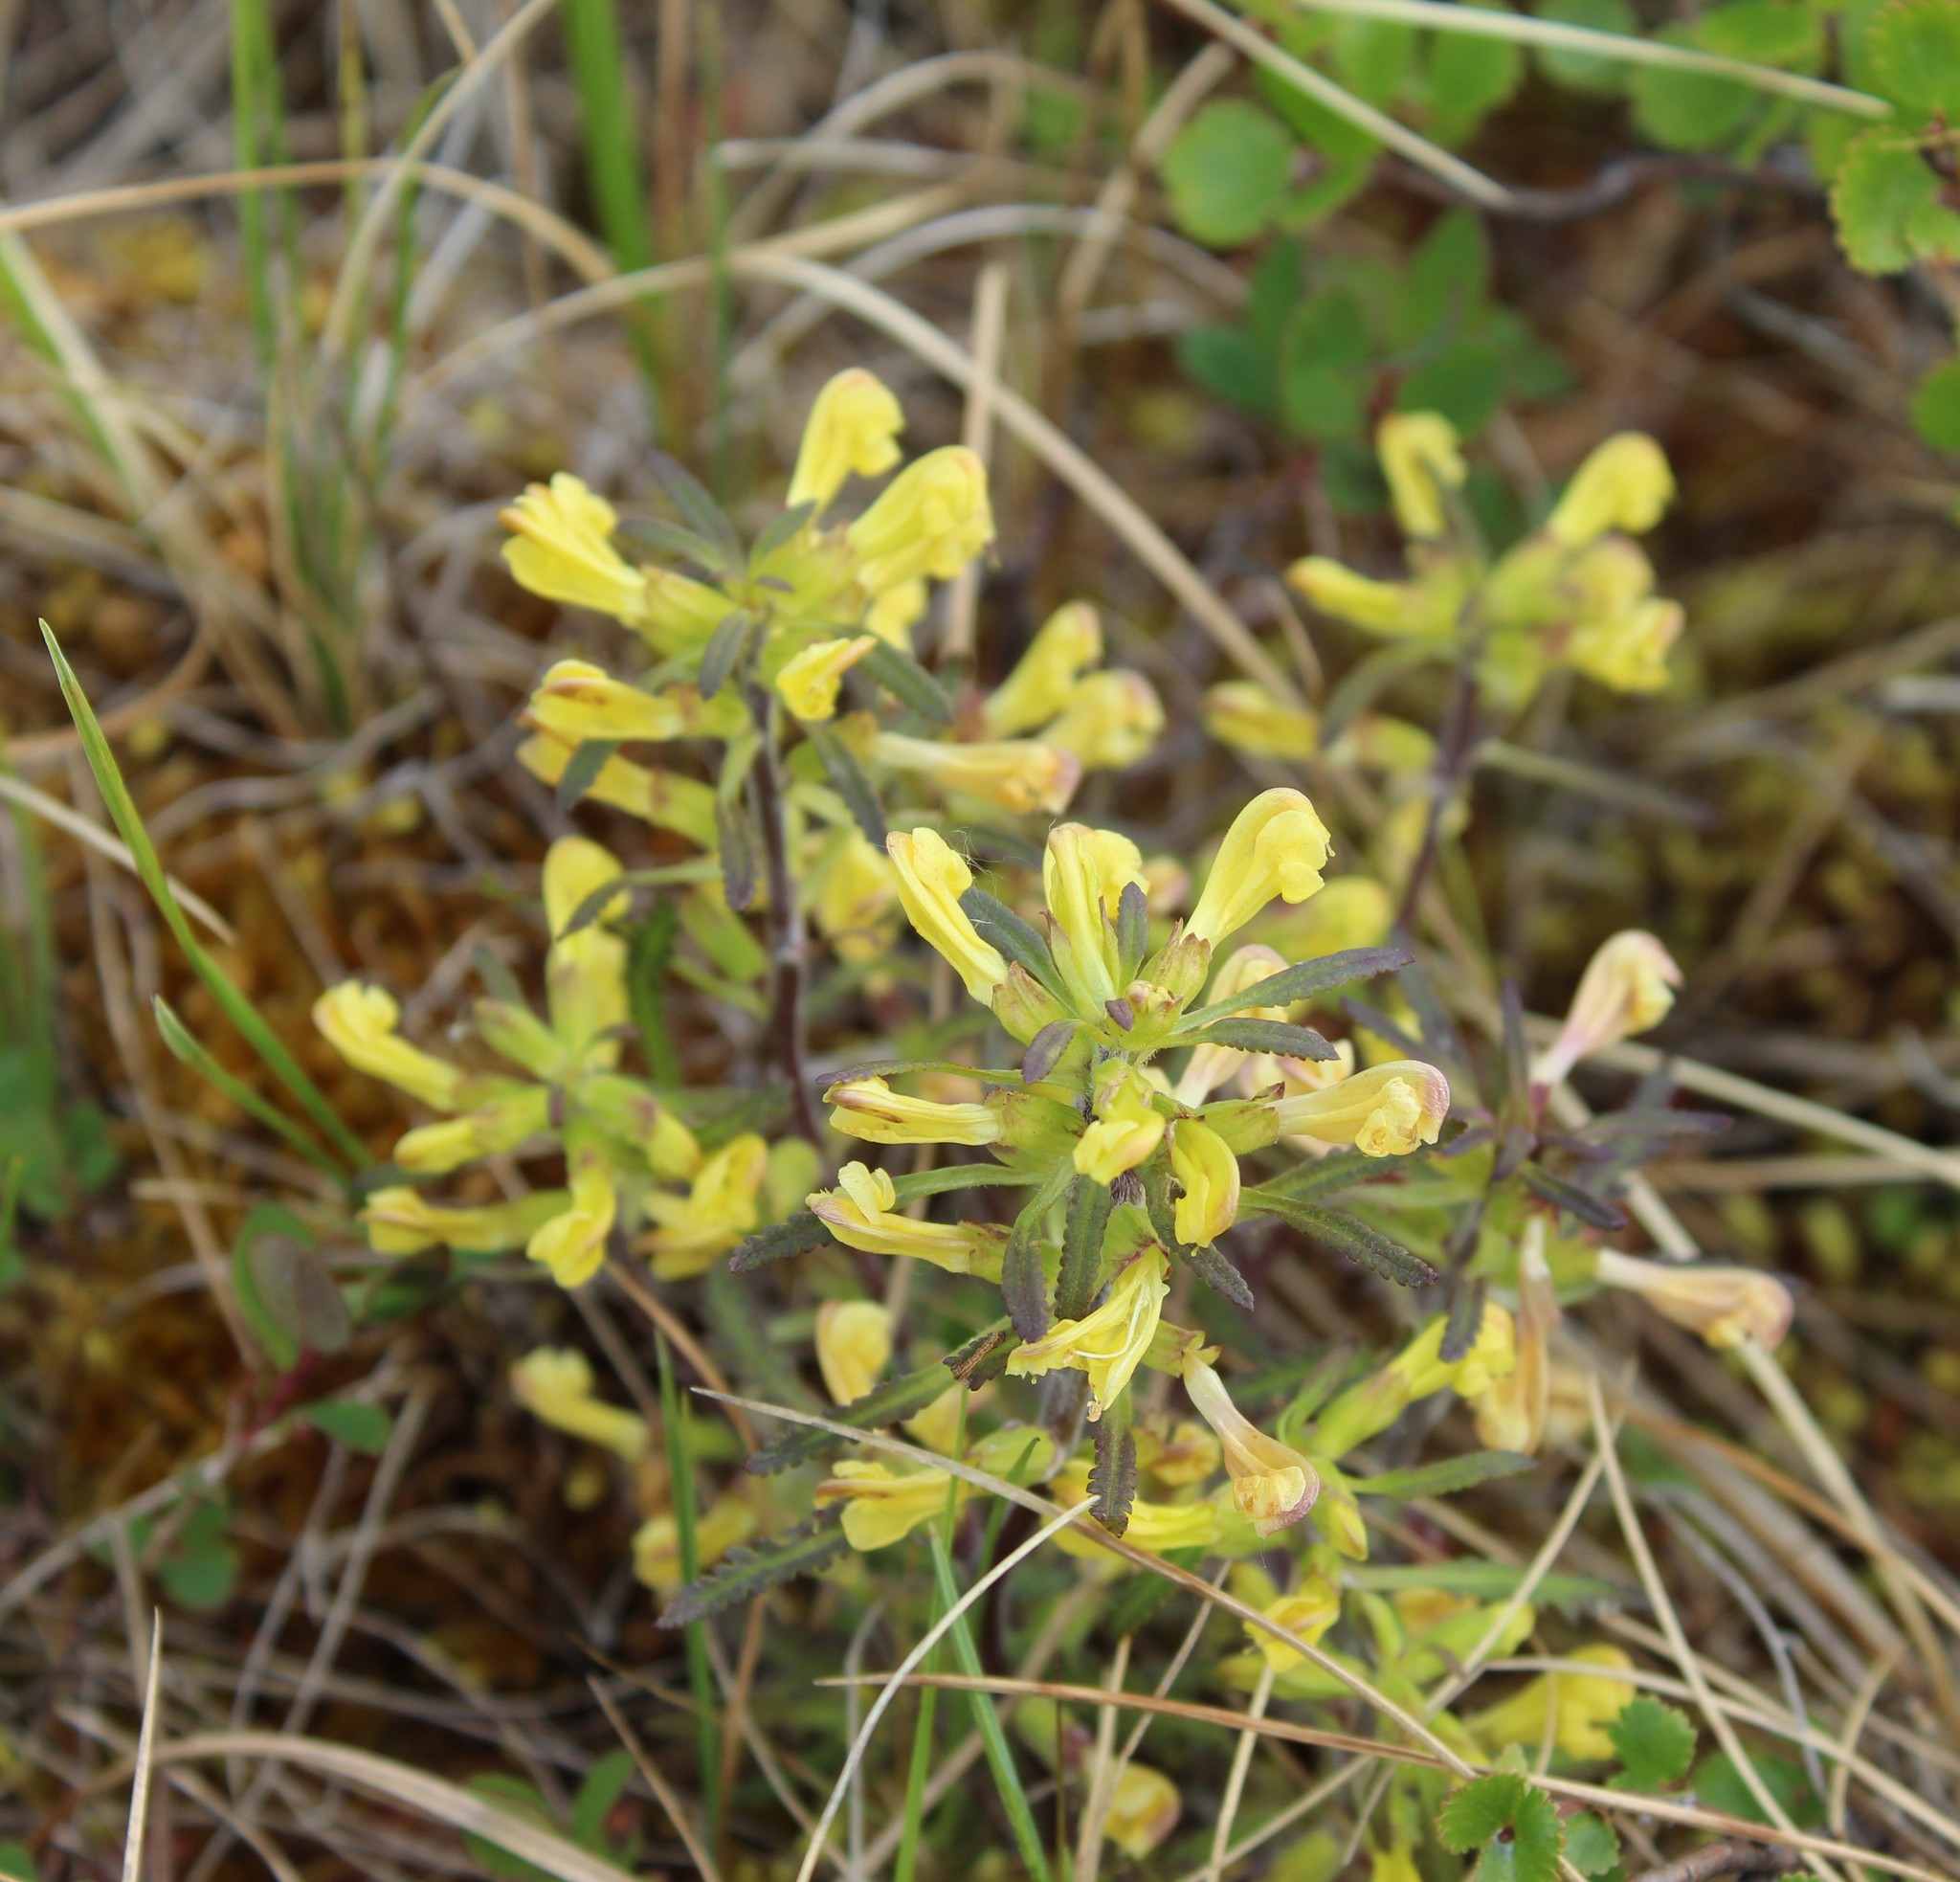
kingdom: Plantae
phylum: Tracheophyta
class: Magnoliopsida
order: Lamiales
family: Orobanchaceae
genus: Pedicularis
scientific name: Pedicularis labradorica
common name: Labrador lousewort
